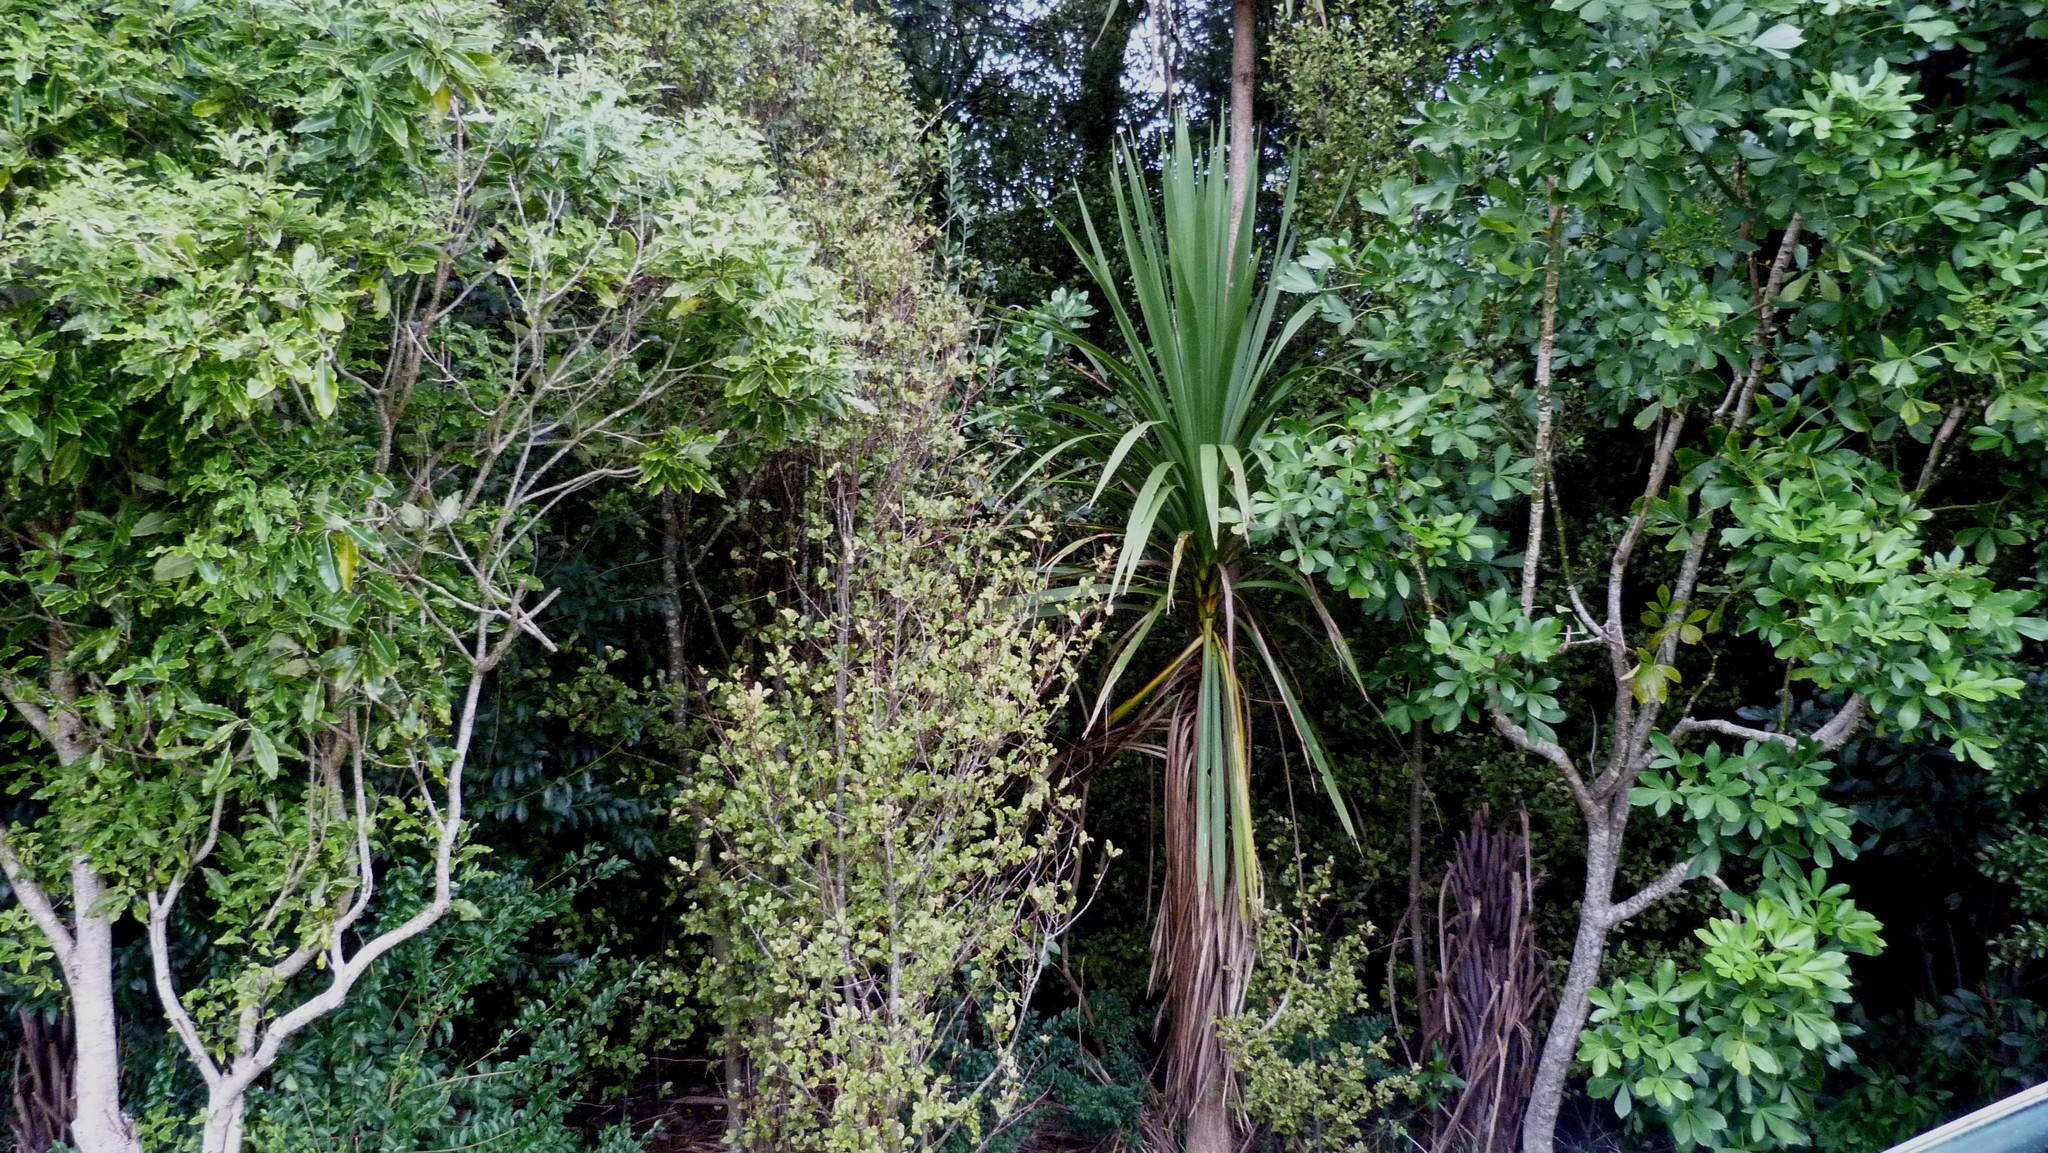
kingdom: Plantae
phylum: Tracheophyta
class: Magnoliopsida
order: Apiales
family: Pittosporaceae
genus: Pittosporum
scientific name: Pittosporum eugenioides
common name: Lemonwood
